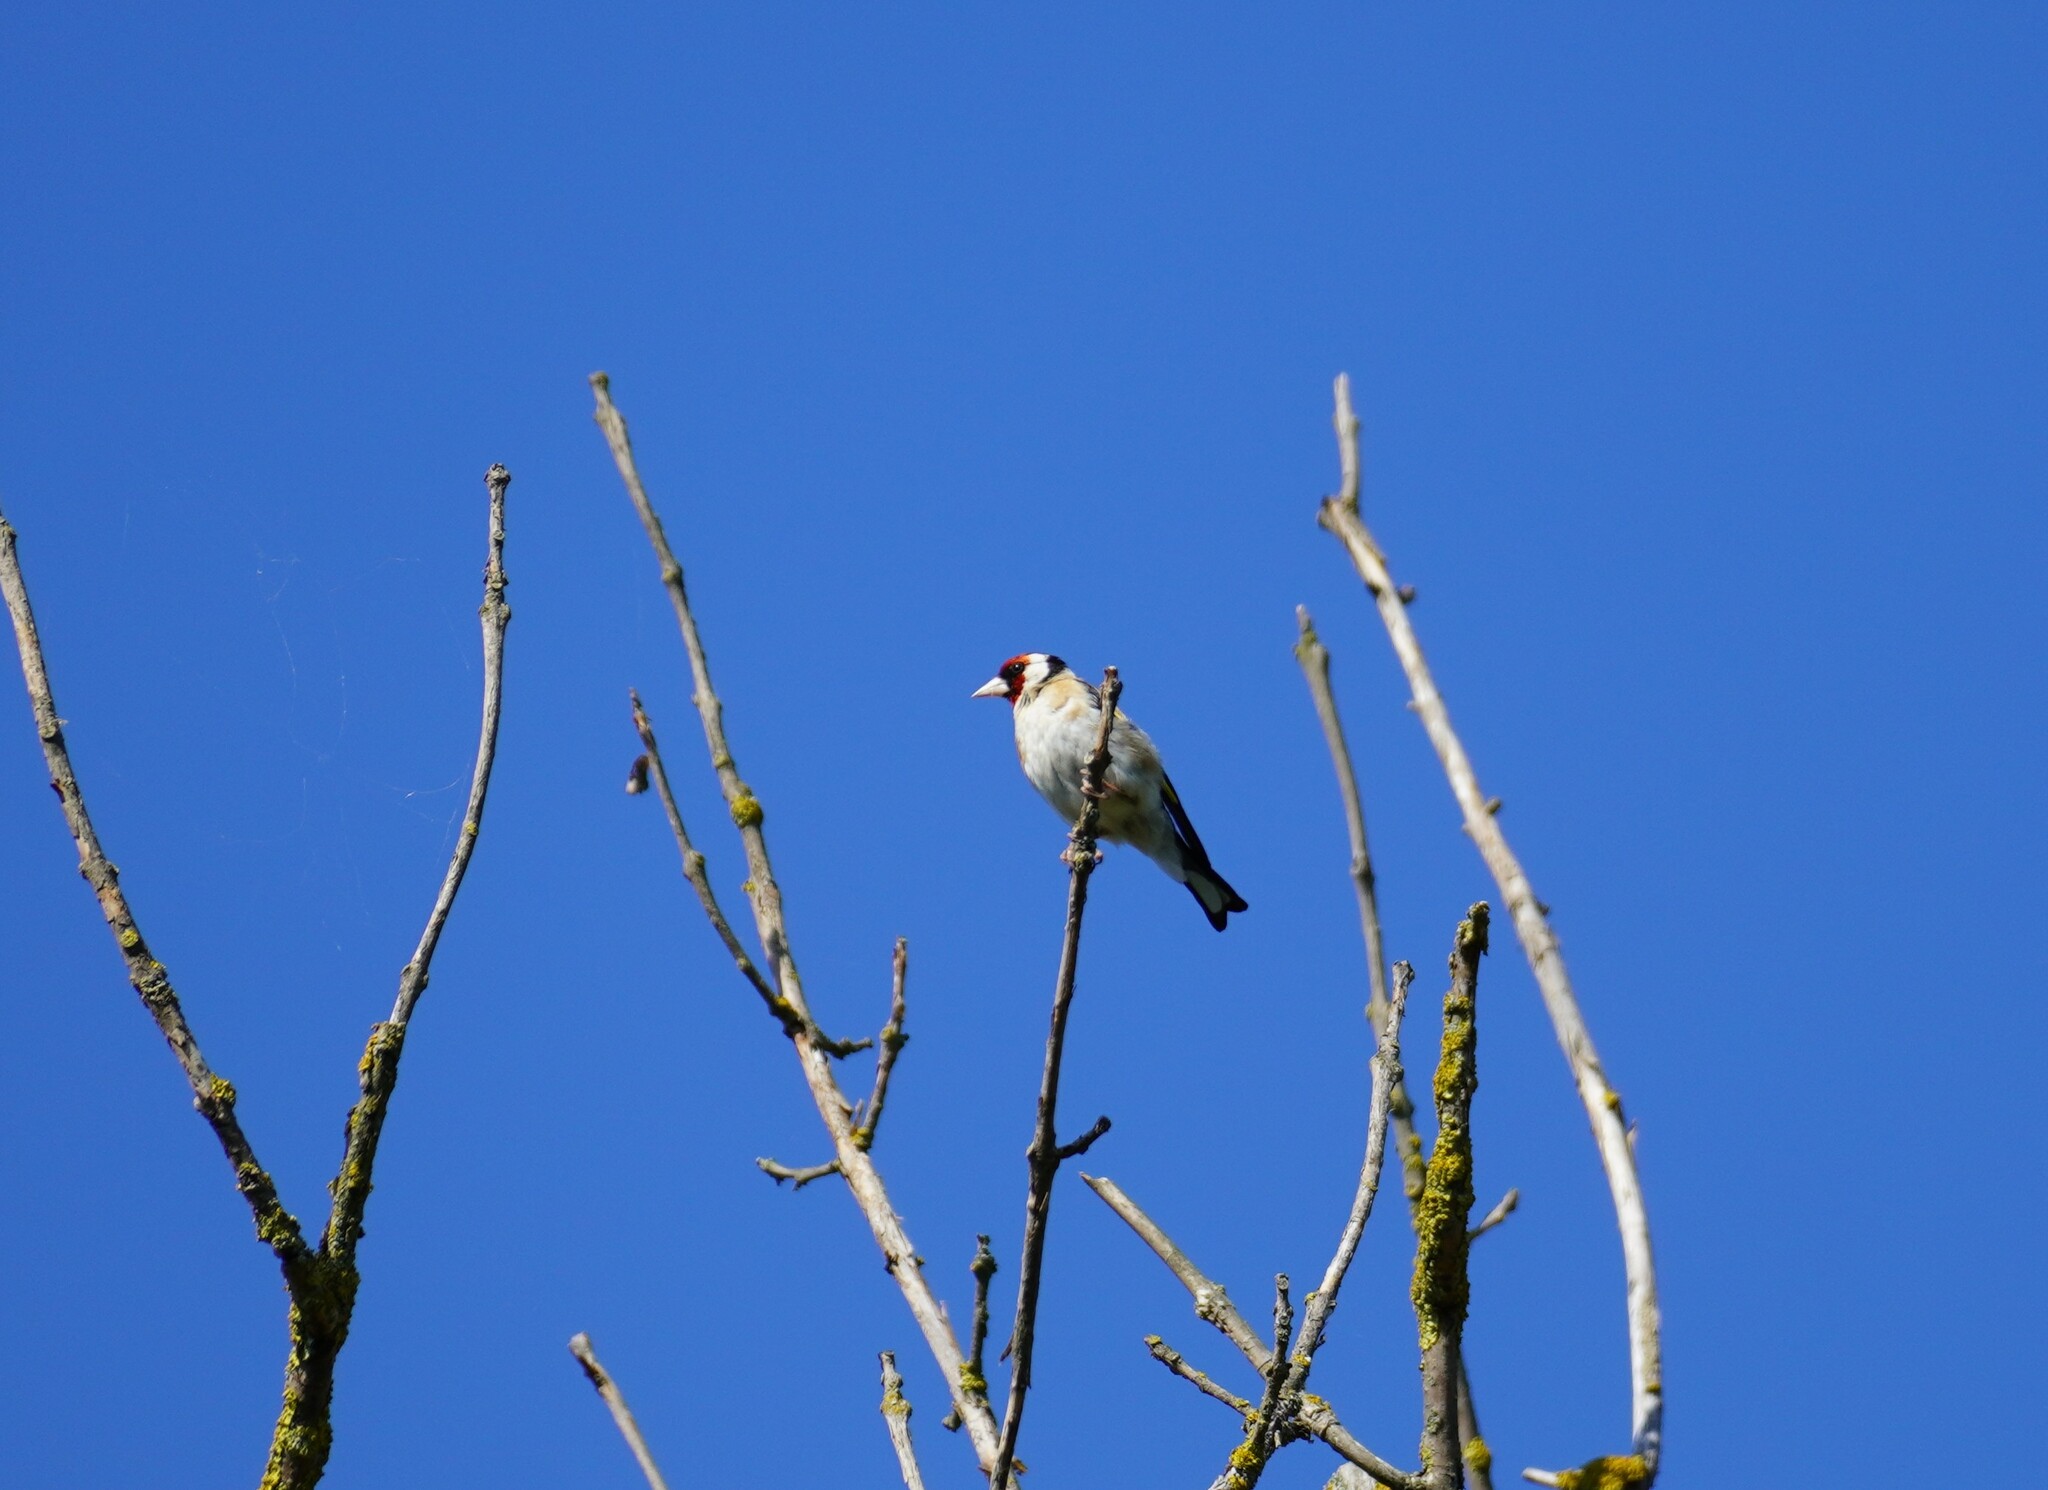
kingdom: Animalia
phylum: Chordata
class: Aves
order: Passeriformes
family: Fringillidae
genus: Carduelis
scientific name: Carduelis carduelis
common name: European goldfinch
